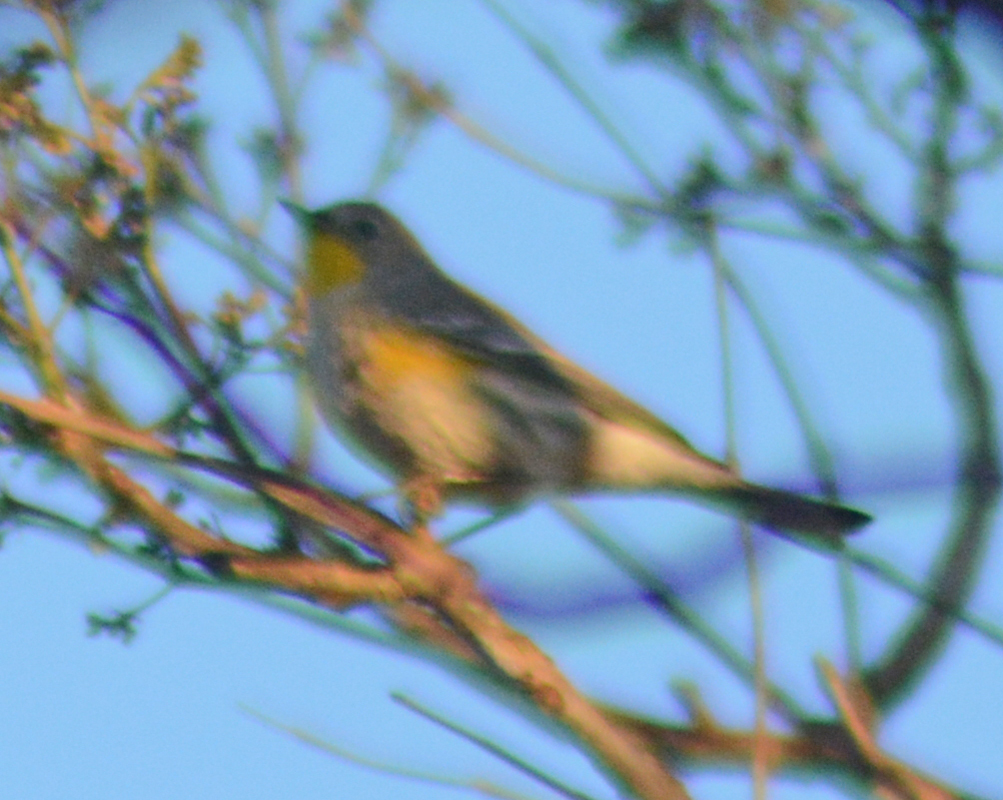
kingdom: Animalia
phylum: Chordata
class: Aves
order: Passeriformes
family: Parulidae
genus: Setophaga
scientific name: Setophaga coronata
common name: Myrtle warbler
